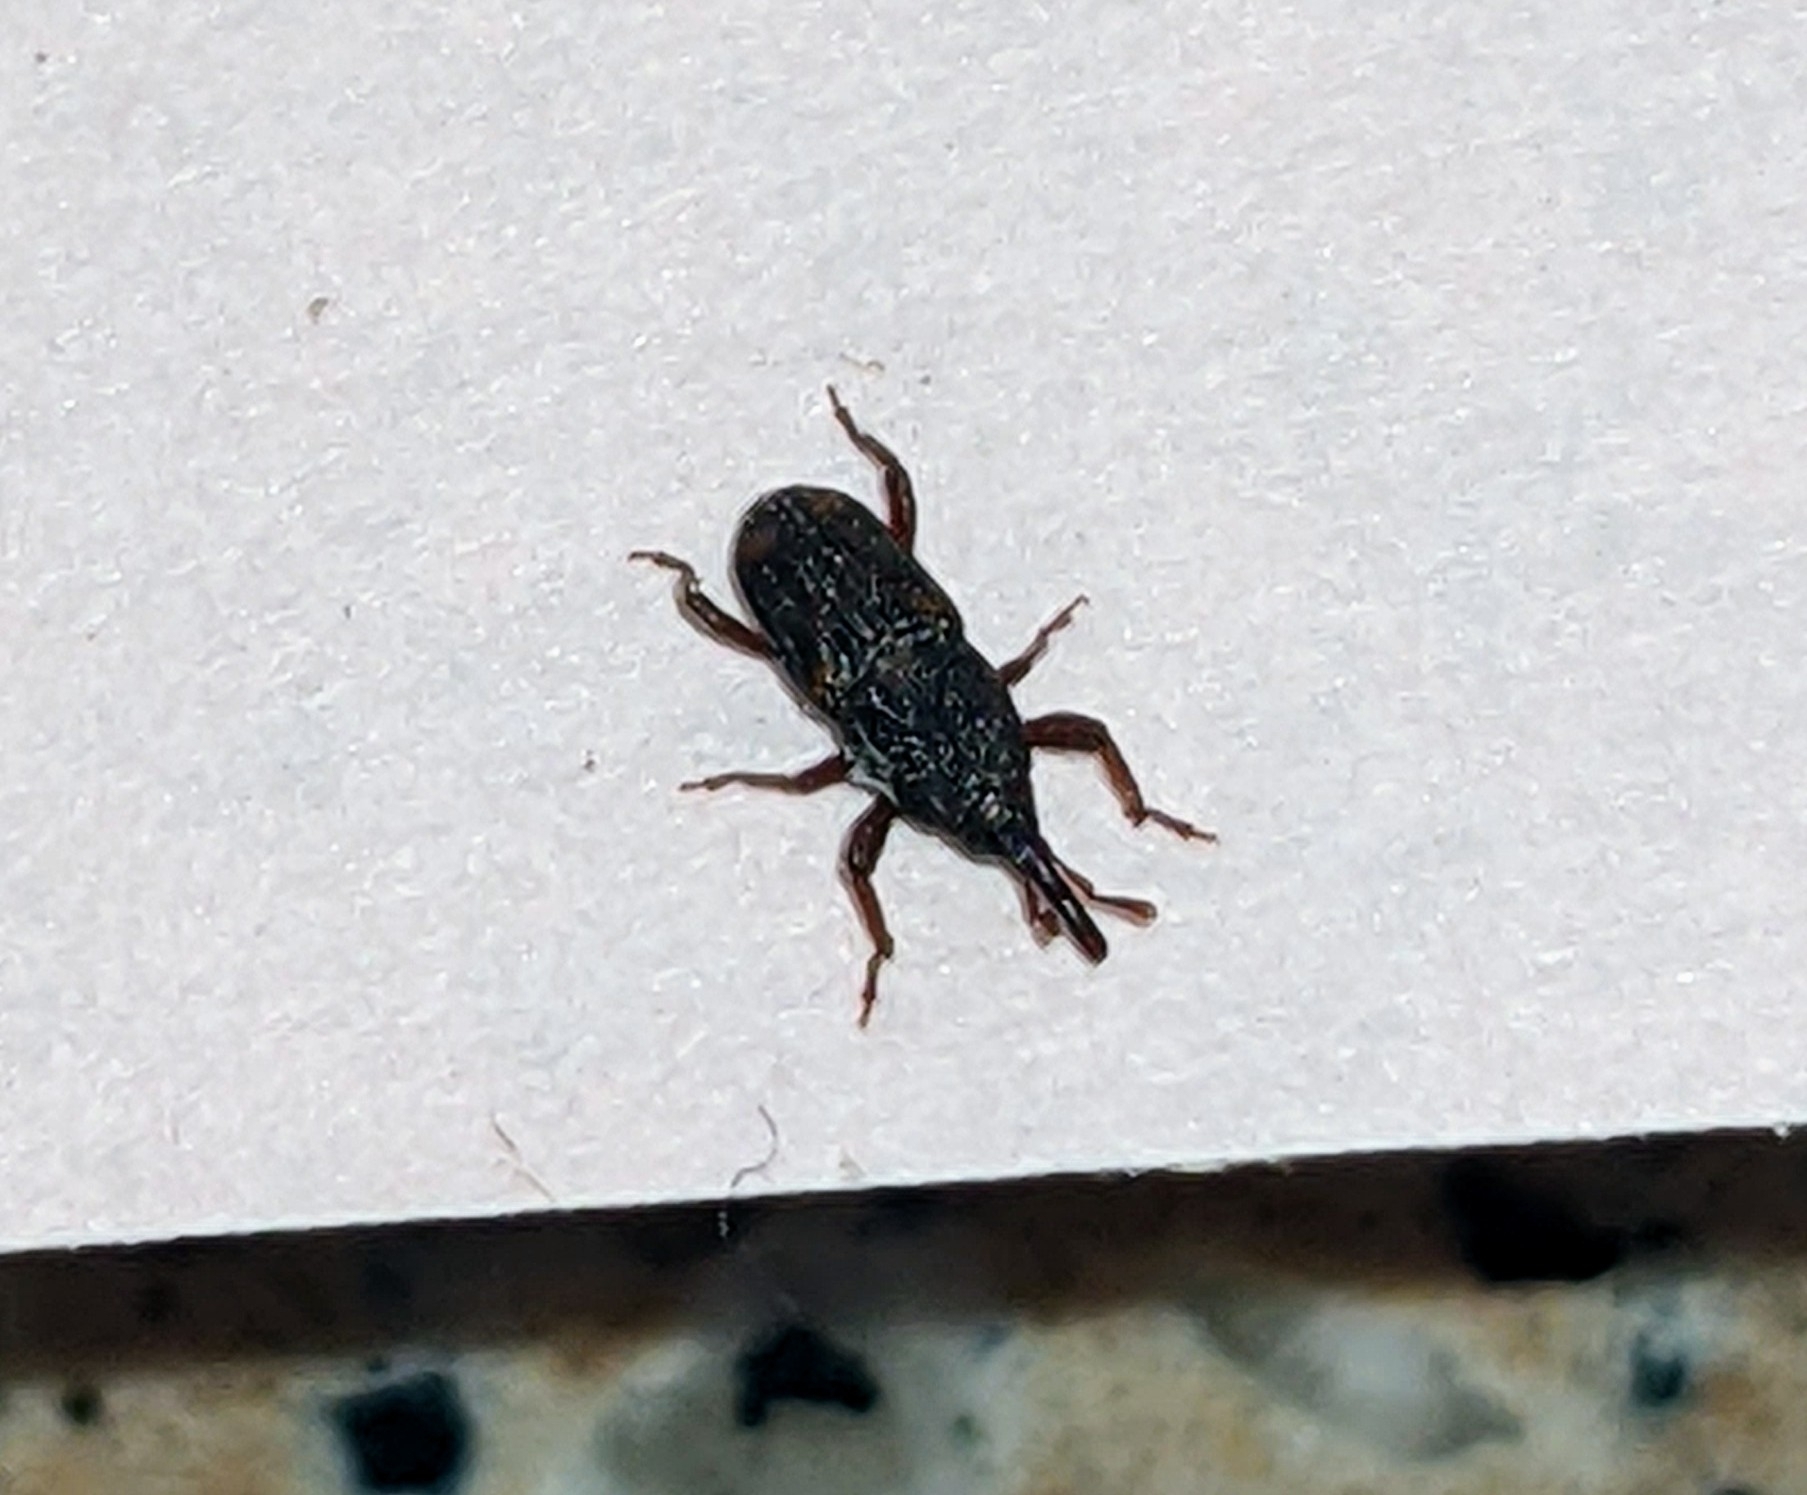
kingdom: Animalia
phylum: Arthropoda
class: Insecta
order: Coleoptera
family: Dryophthoridae
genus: Sitophilus
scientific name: Sitophilus
